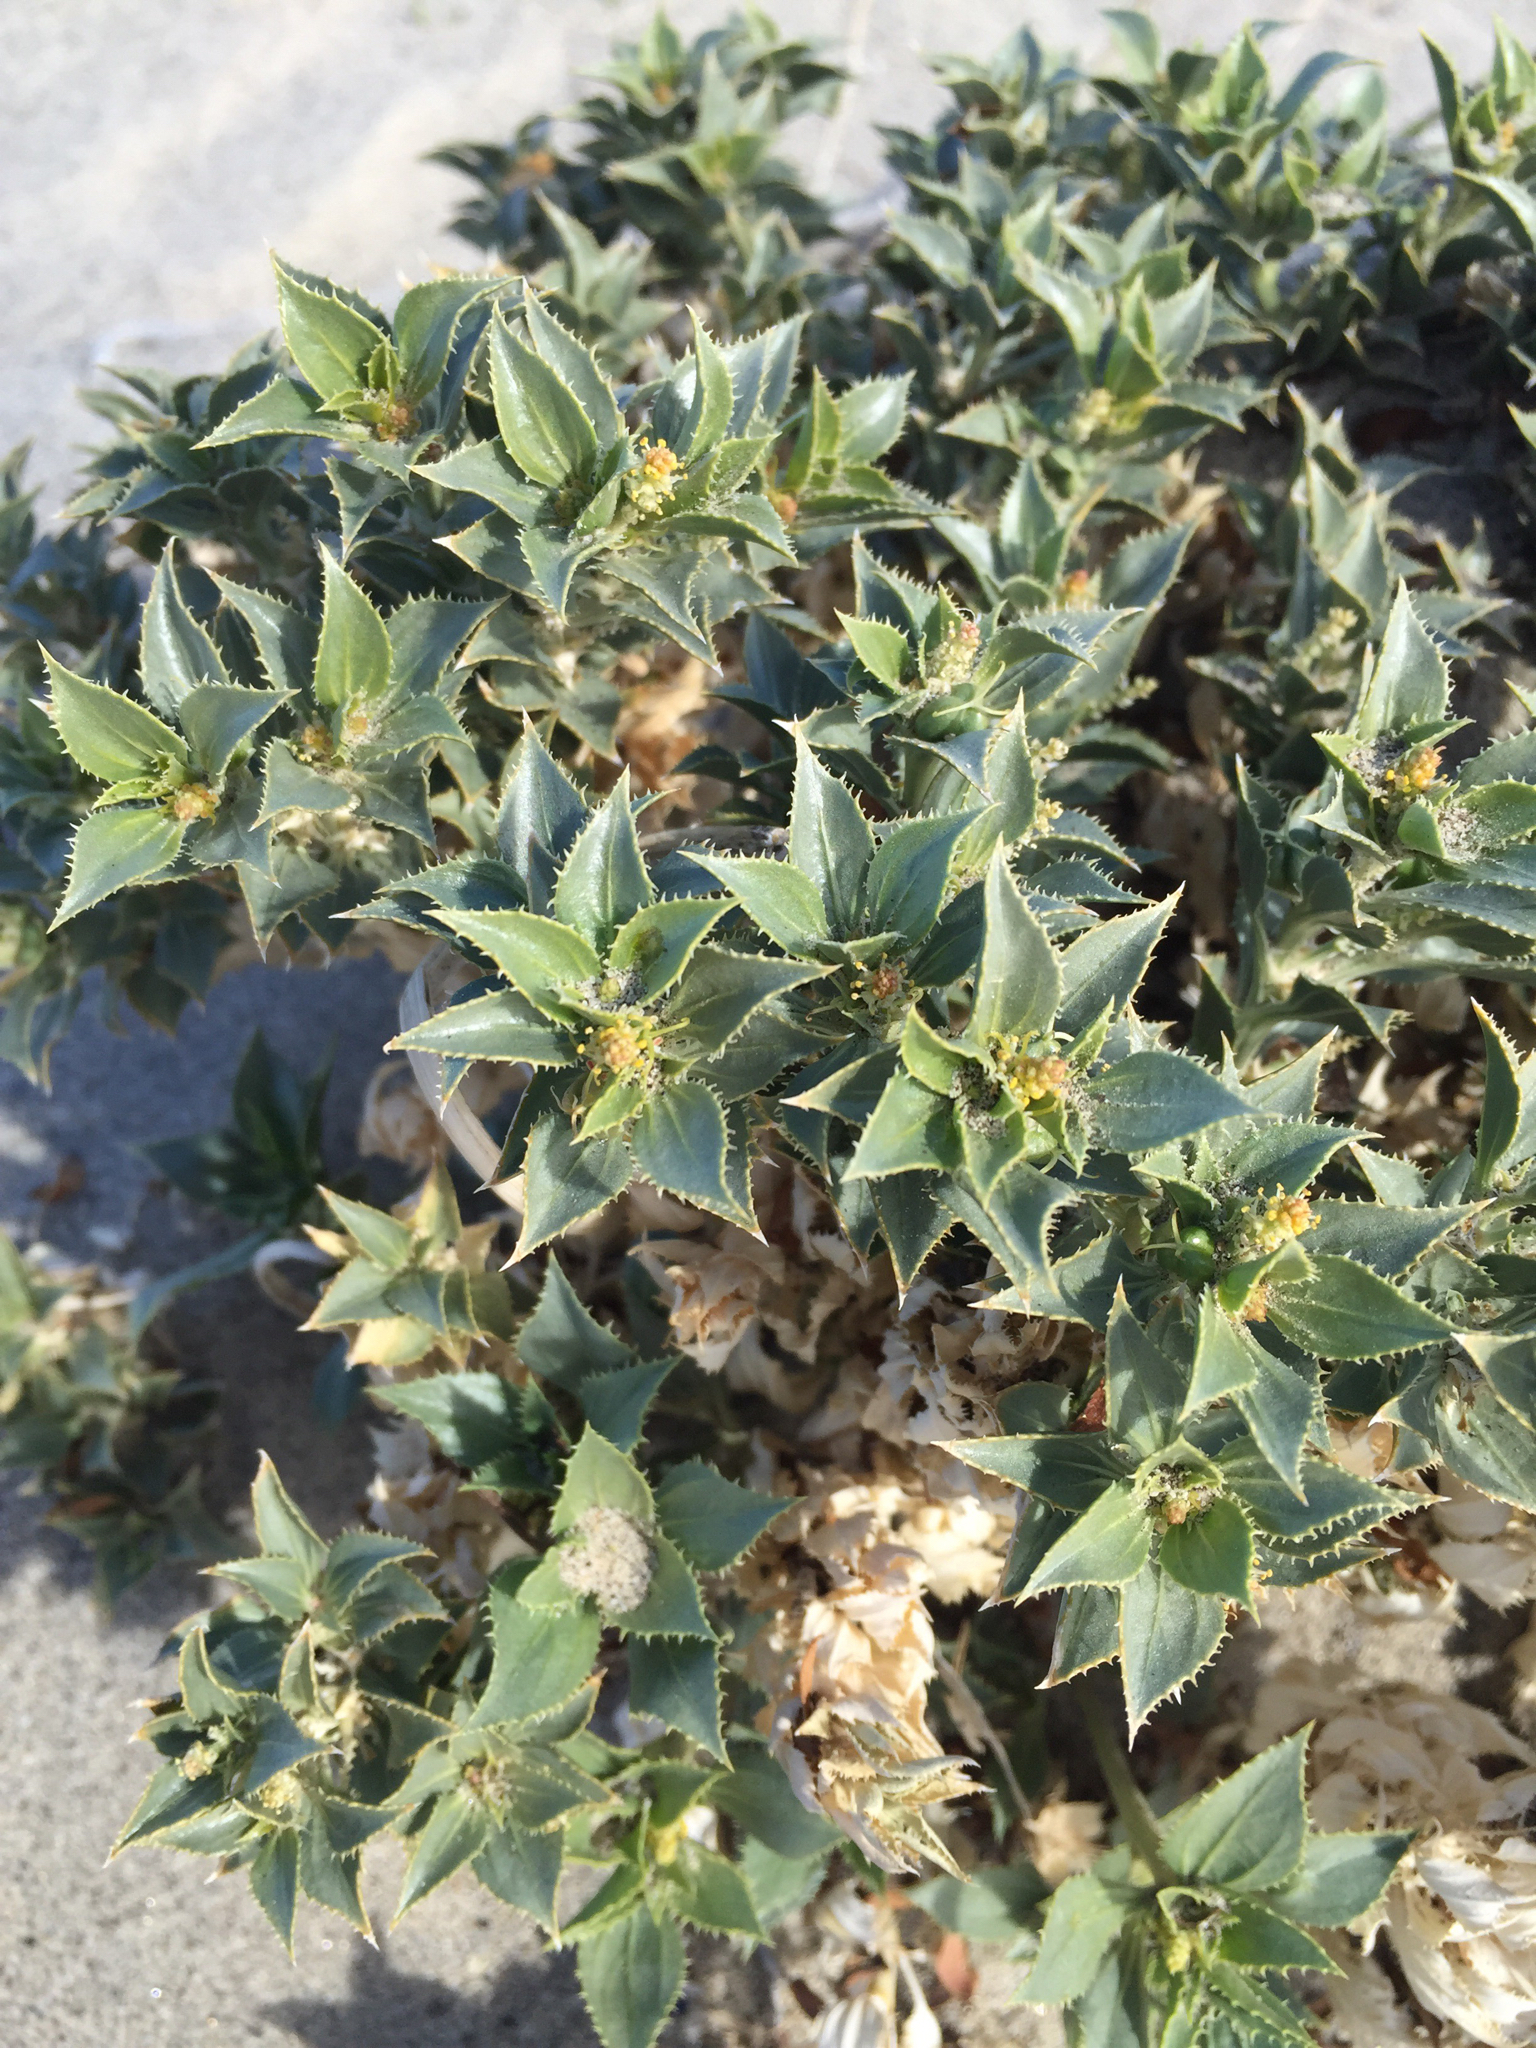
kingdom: Plantae
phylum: Tracheophyta
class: Magnoliopsida
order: Malpighiales
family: Euphorbiaceae
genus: Stillingia
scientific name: Stillingia spinulosa
